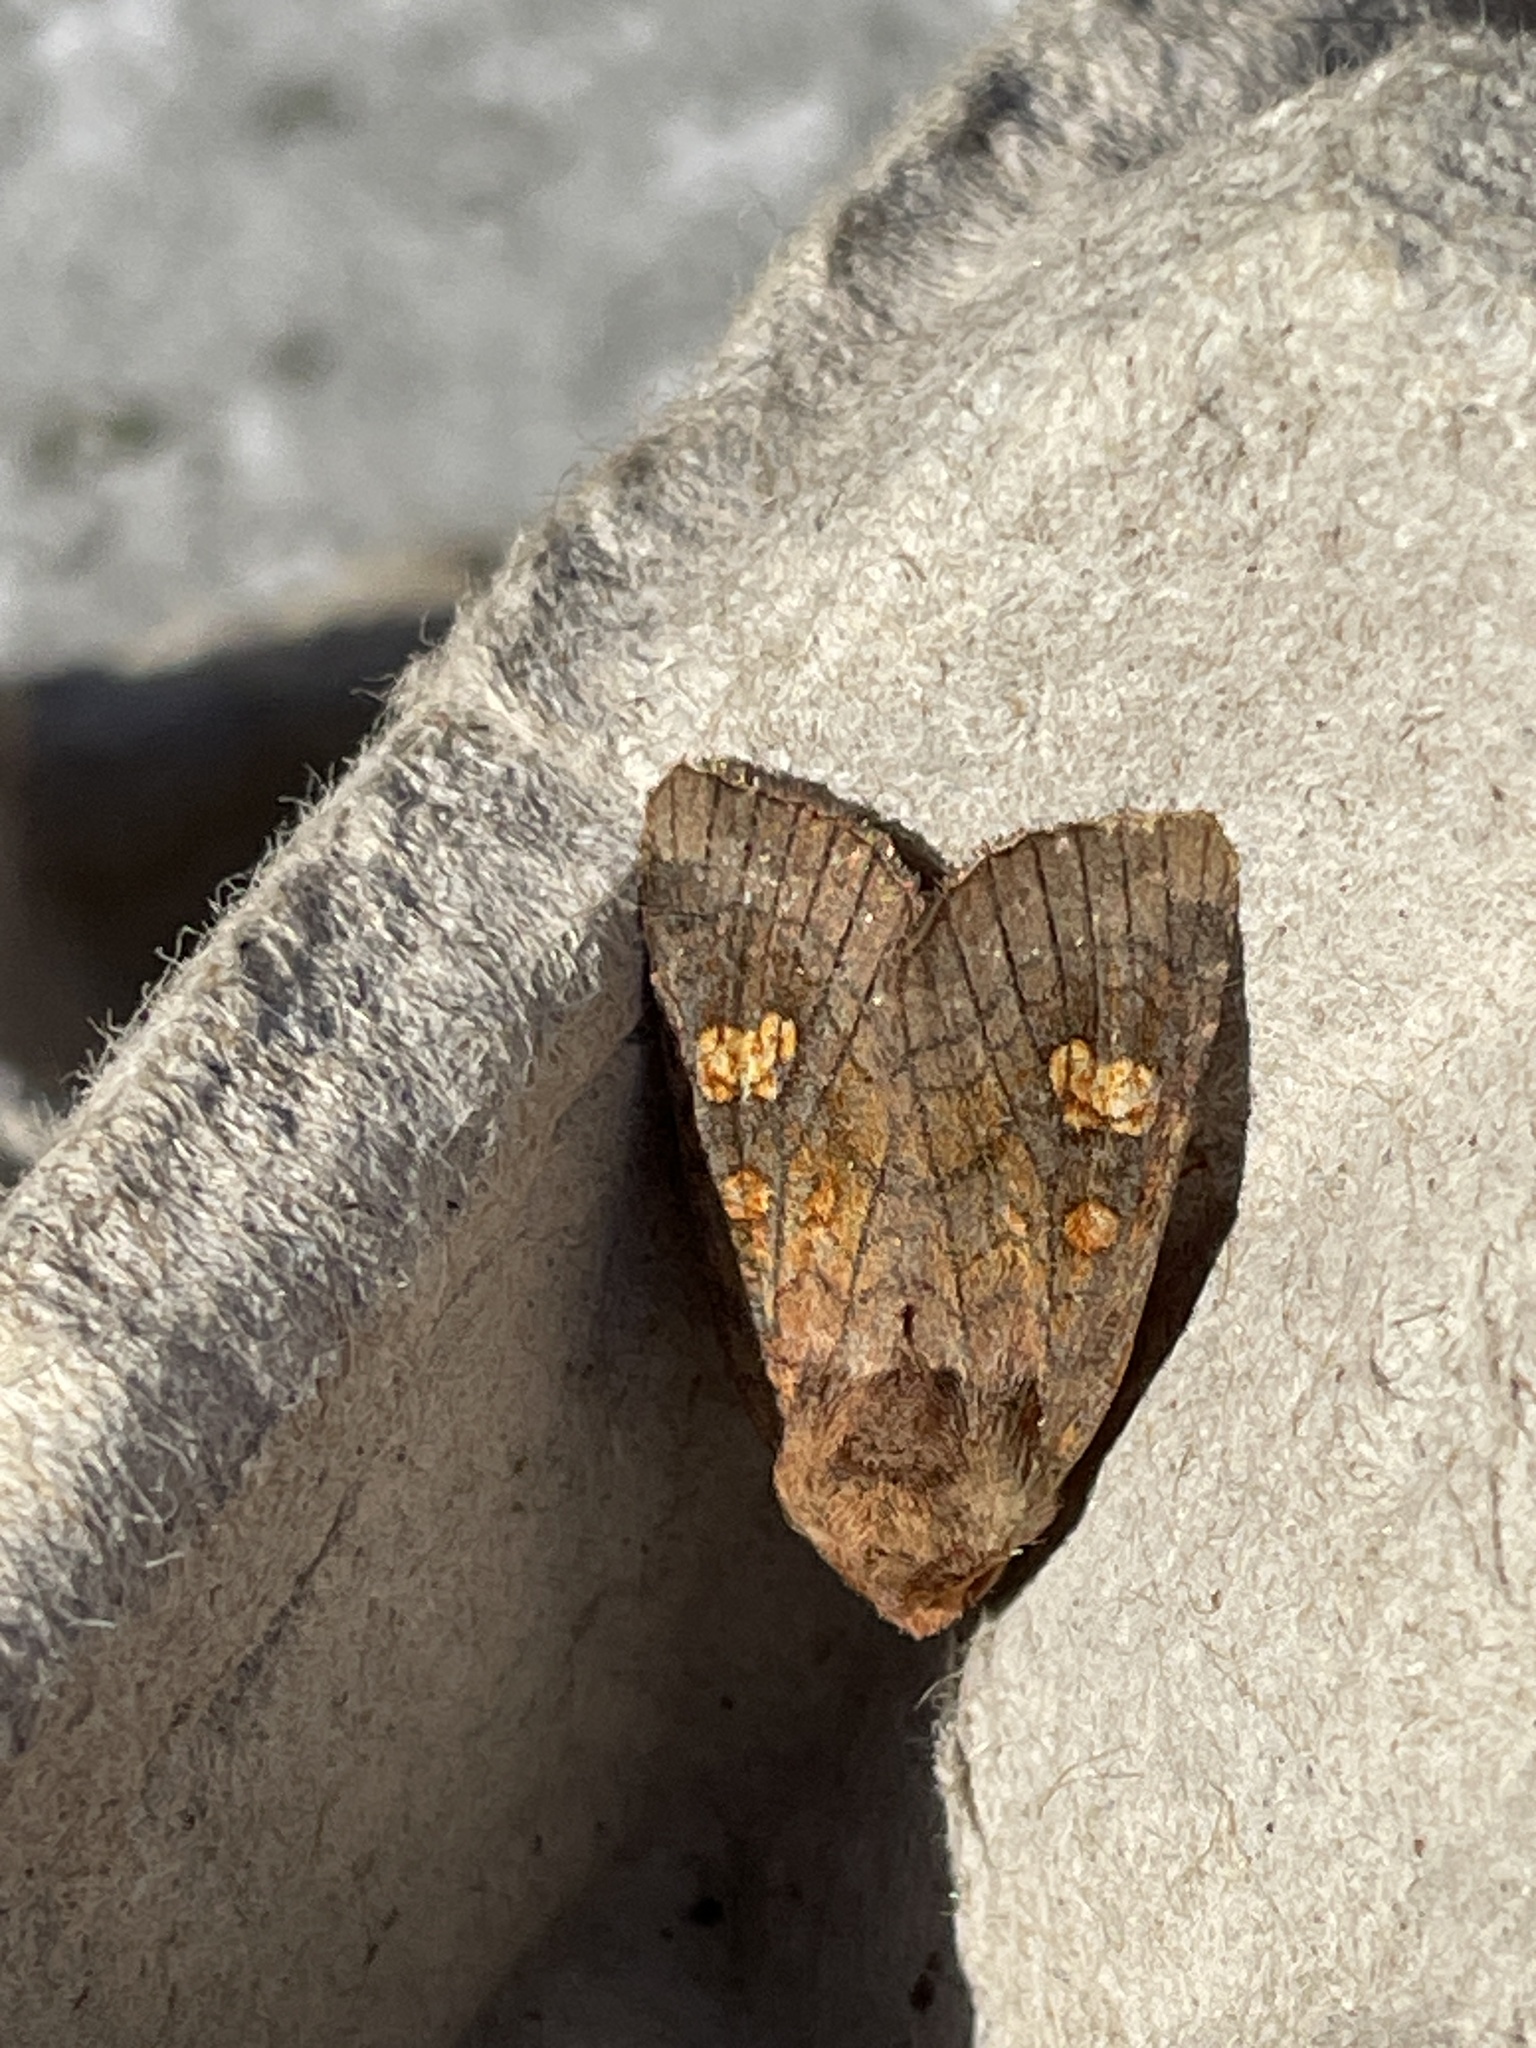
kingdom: Animalia
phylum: Arthropoda
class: Insecta
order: Lepidoptera
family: Noctuidae
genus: Amphipoea
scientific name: Amphipoea oculea
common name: Ear moth
